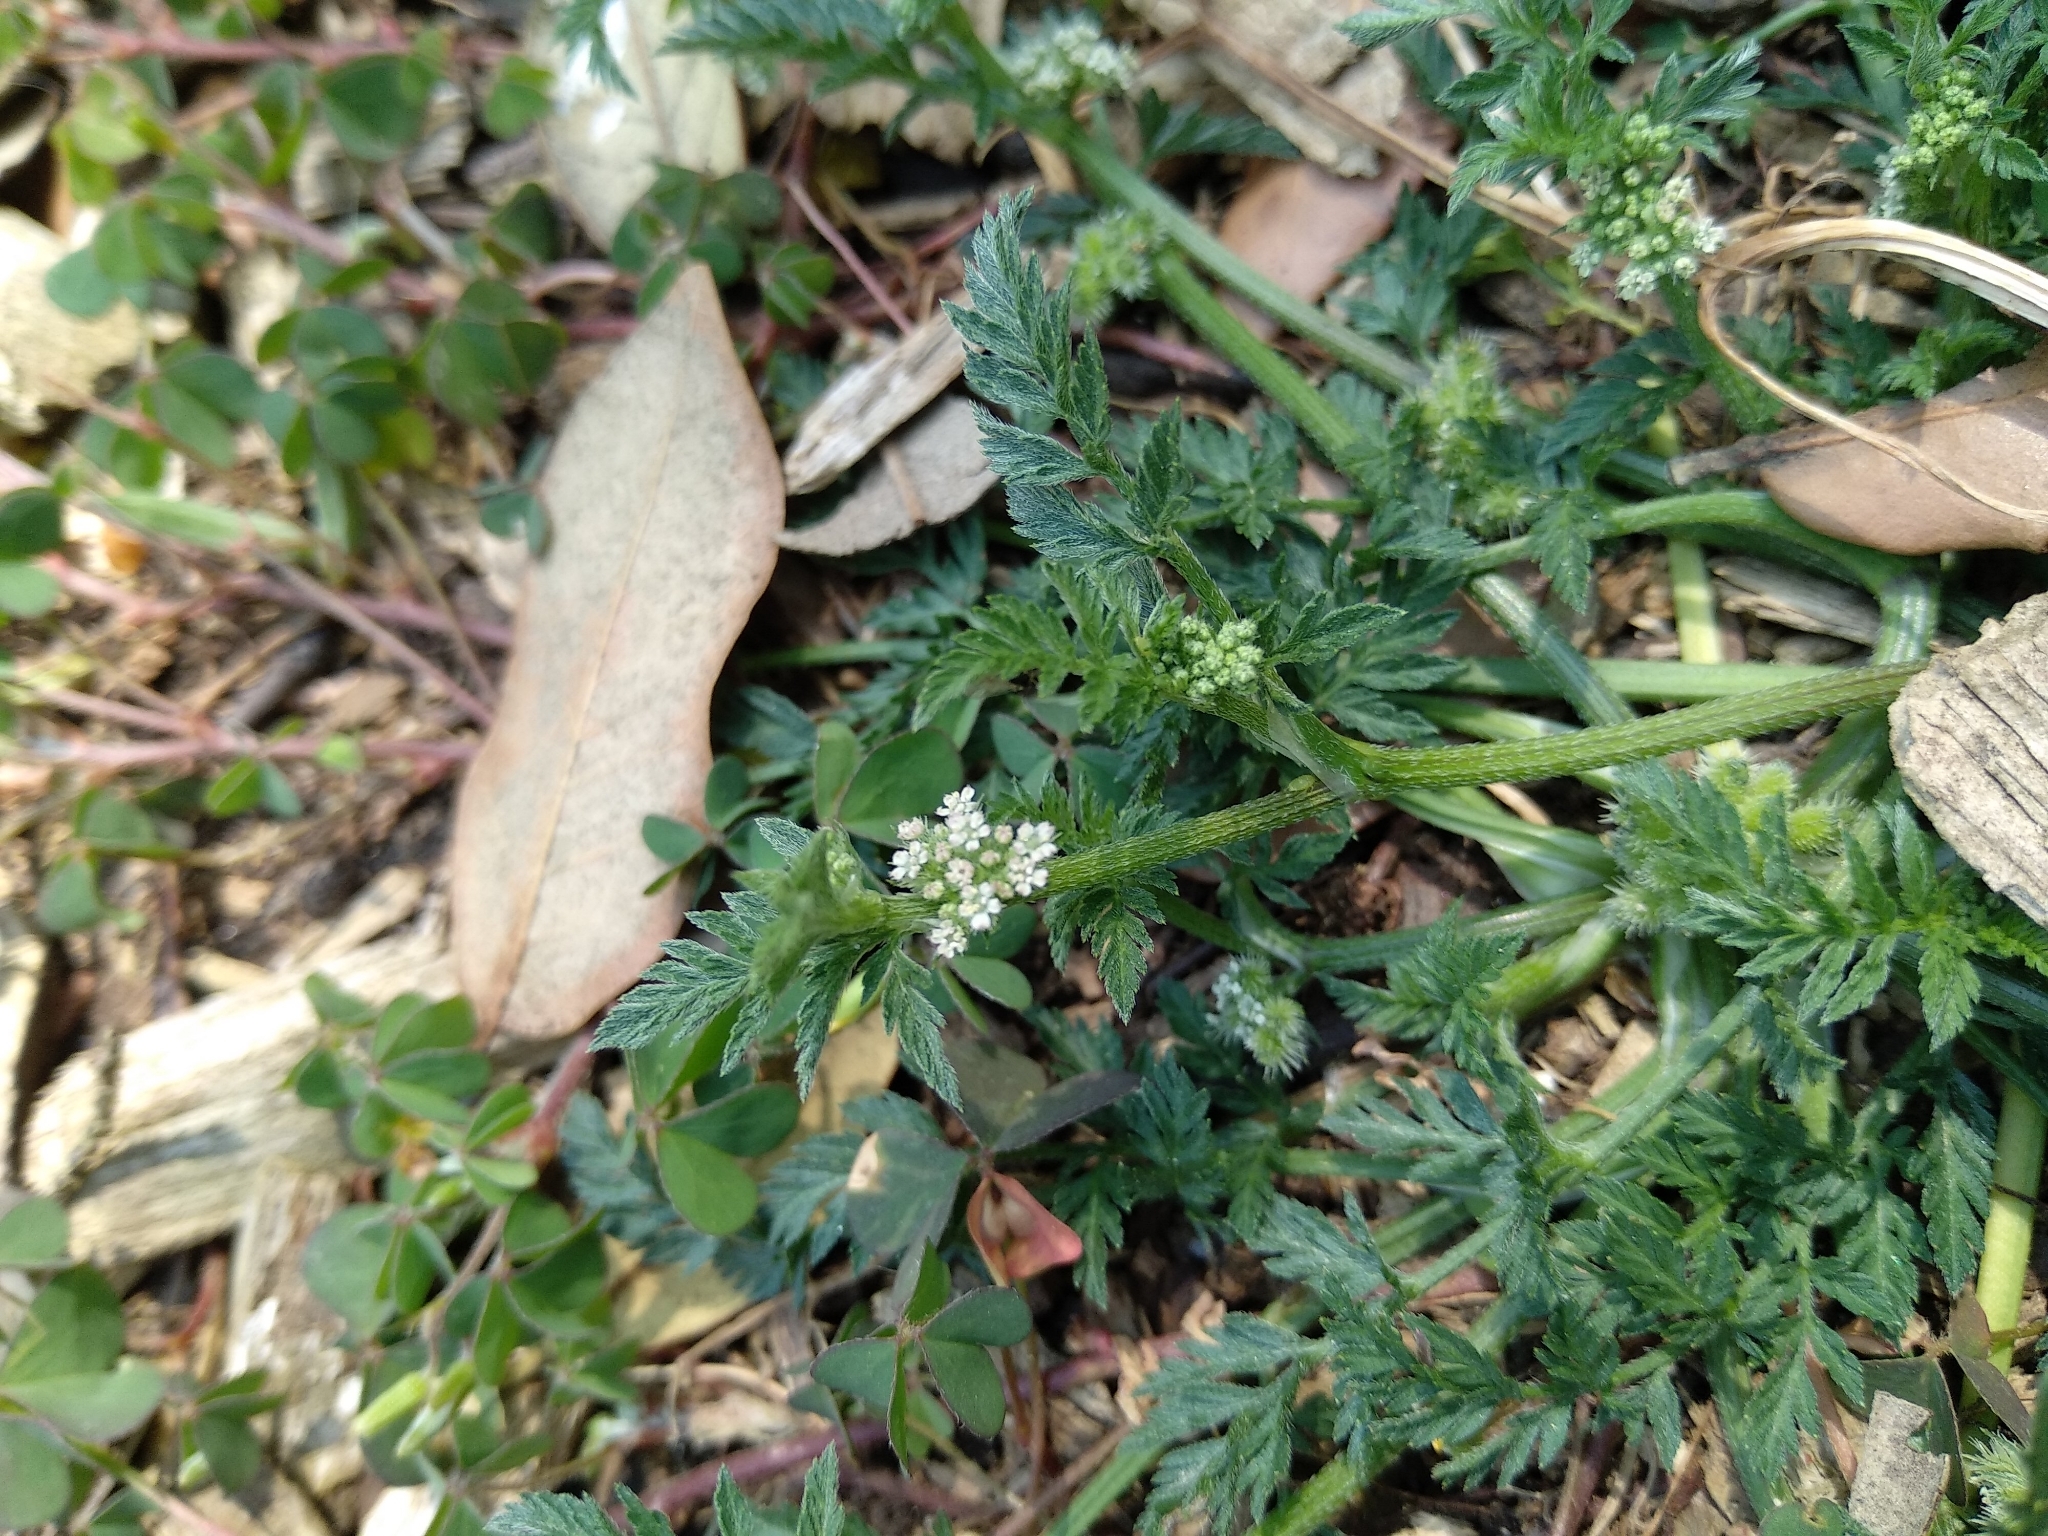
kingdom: Plantae
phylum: Tracheophyta
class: Magnoliopsida
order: Apiales
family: Apiaceae
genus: Torilis
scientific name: Torilis nodosa
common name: Knotted hedge-parsley
